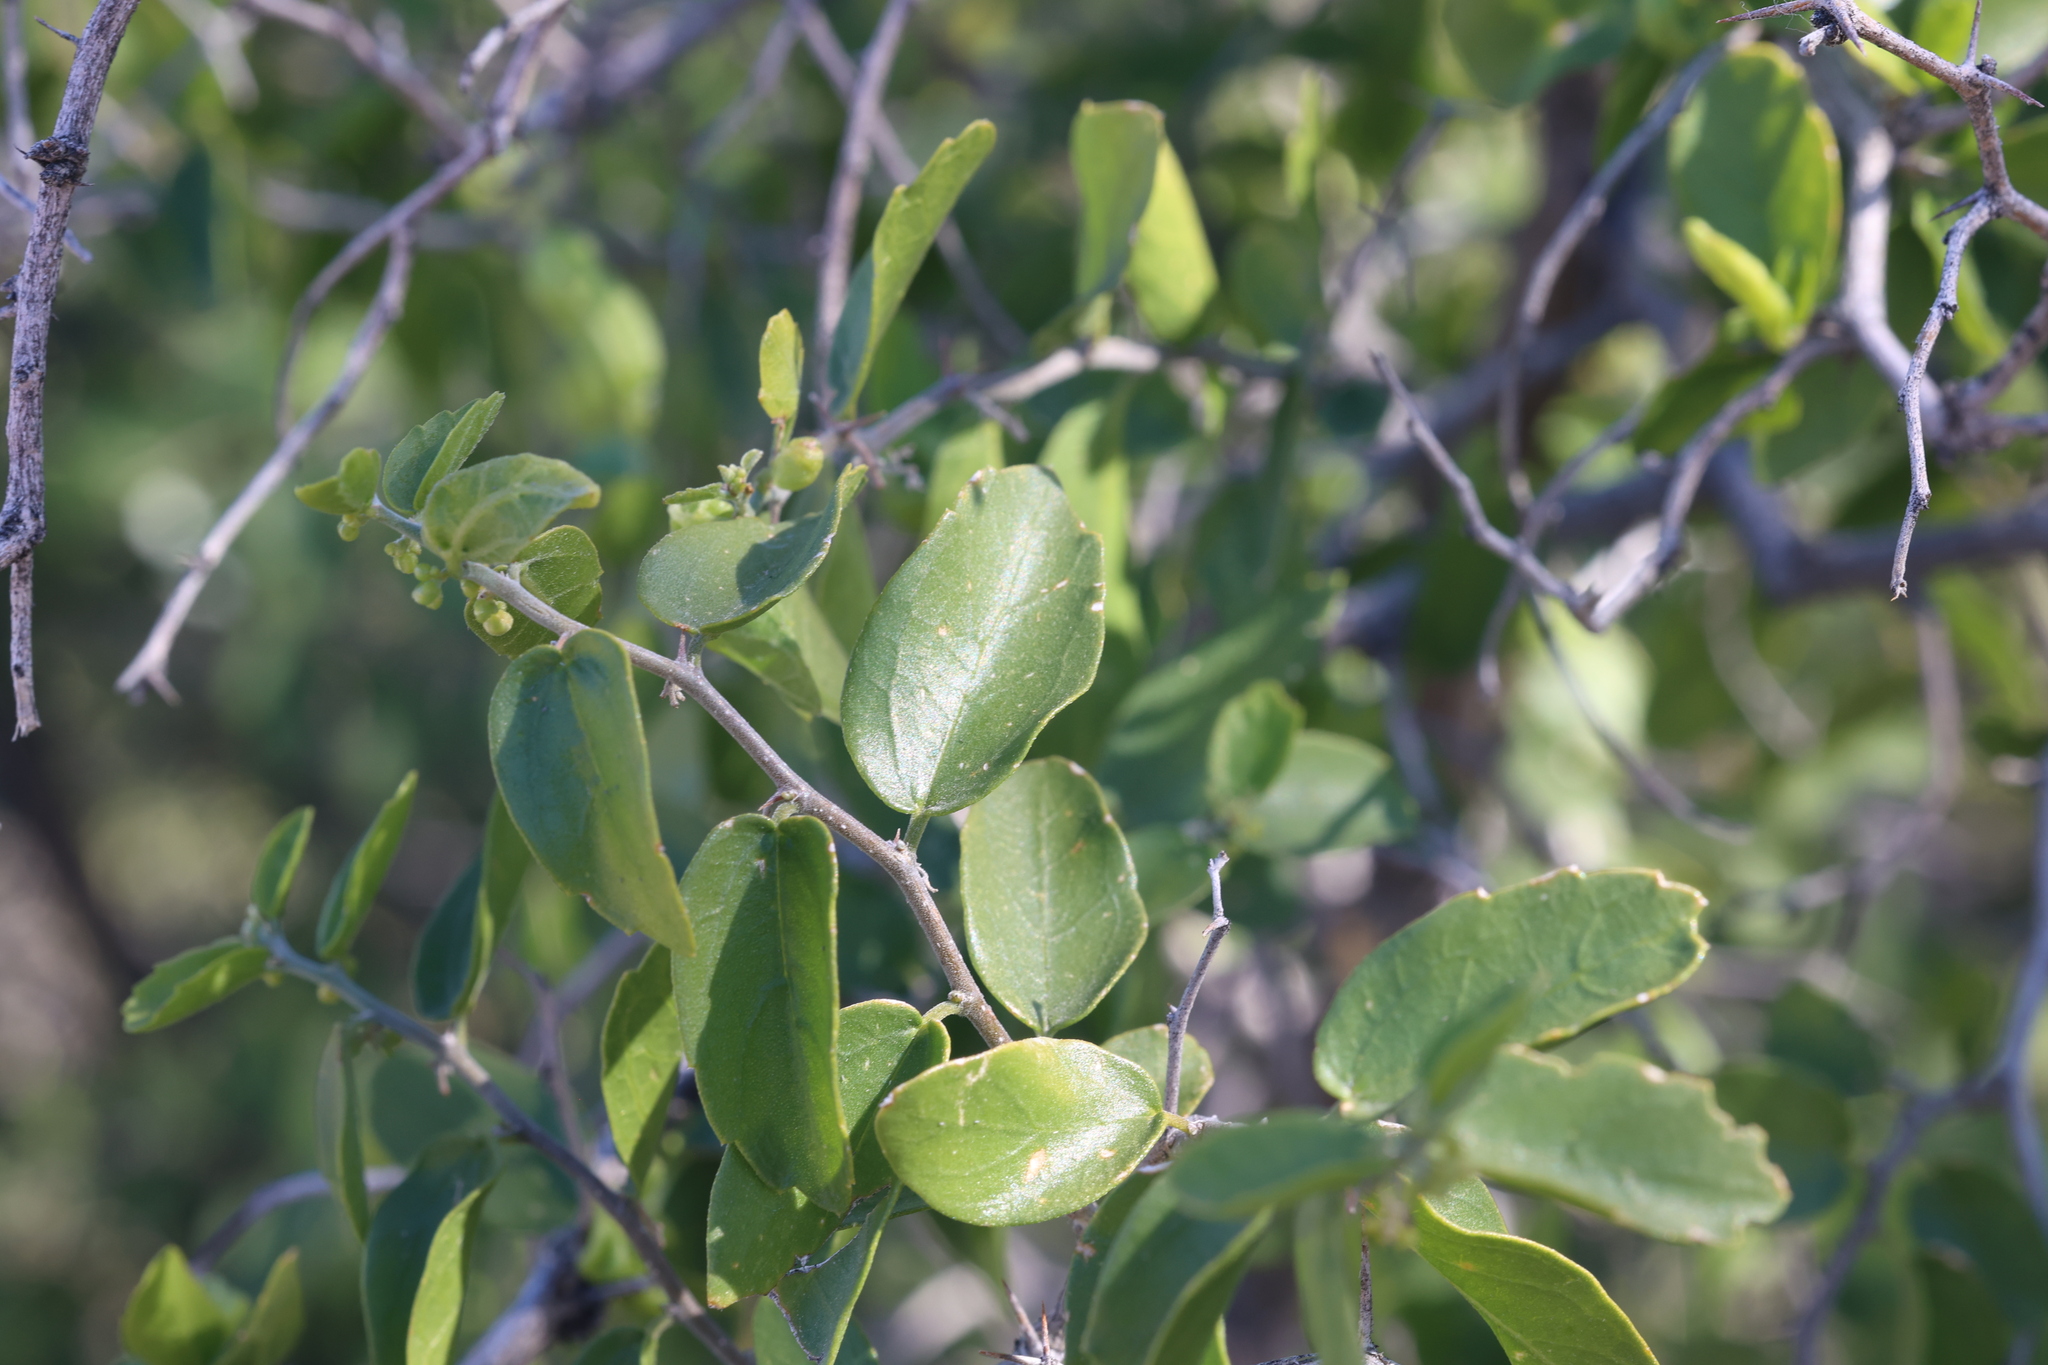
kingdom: Plantae
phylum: Tracheophyta
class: Magnoliopsida
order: Rosales
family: Cannabaceae
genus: Celtis
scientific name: Celtis pallida
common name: Desert hackberry
